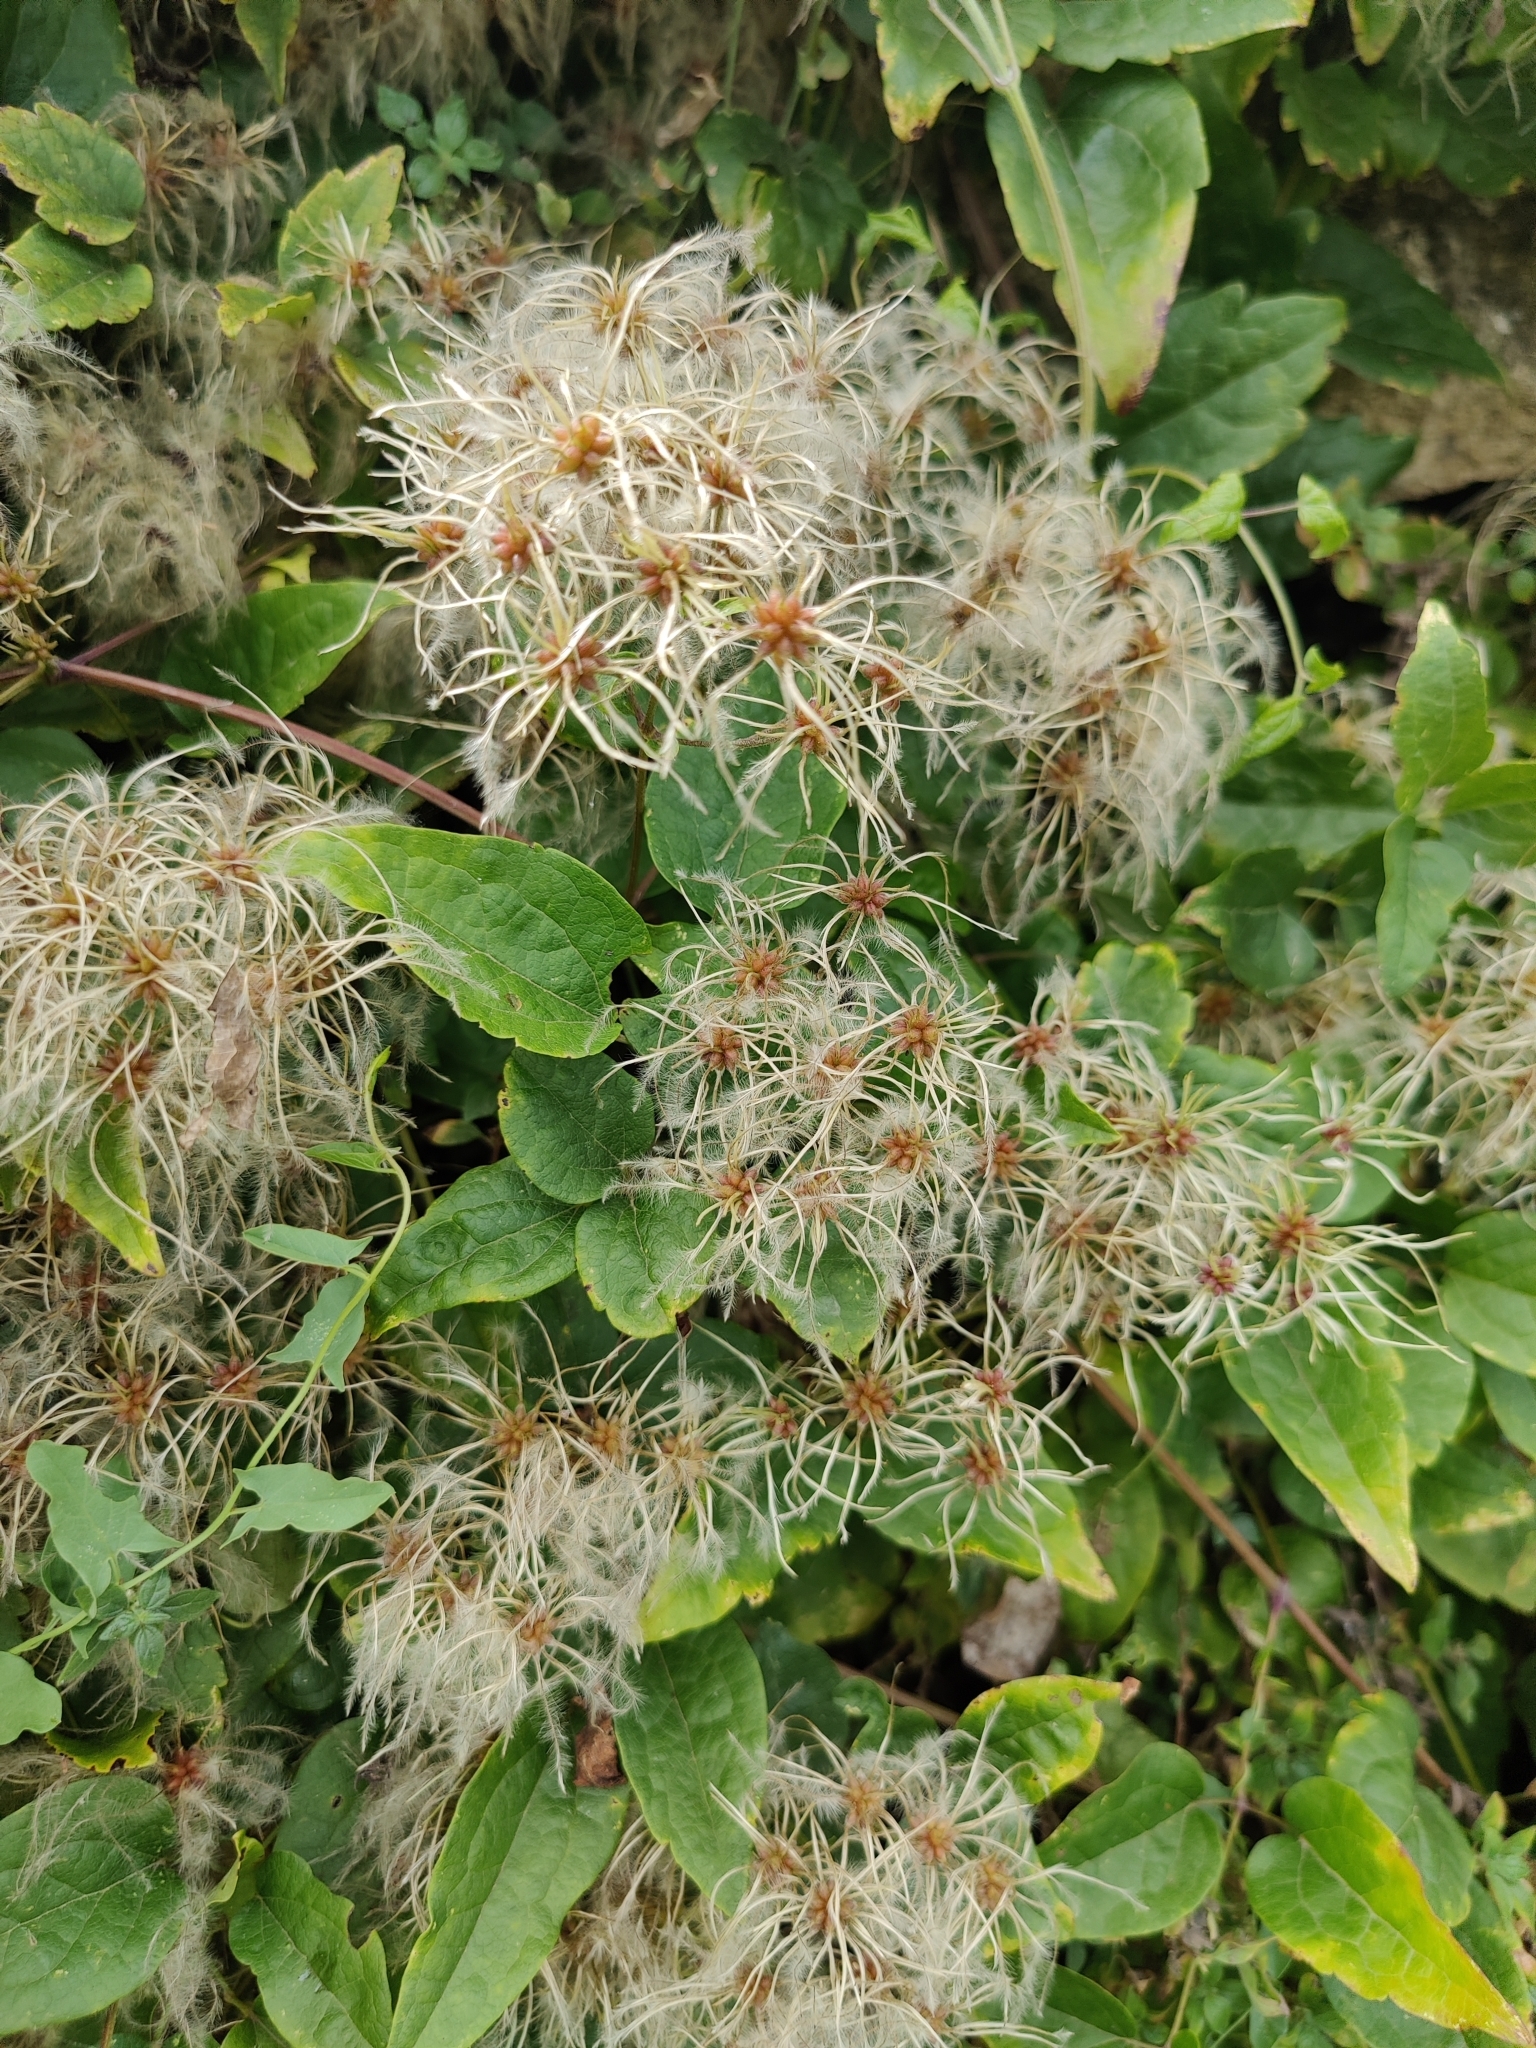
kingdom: Plantae
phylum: Tracheophyta
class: Magnoliopsida
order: Ranunculales
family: Ranunculaceae
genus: Clematis
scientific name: Clematis vitalba
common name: Evergreen clematis
